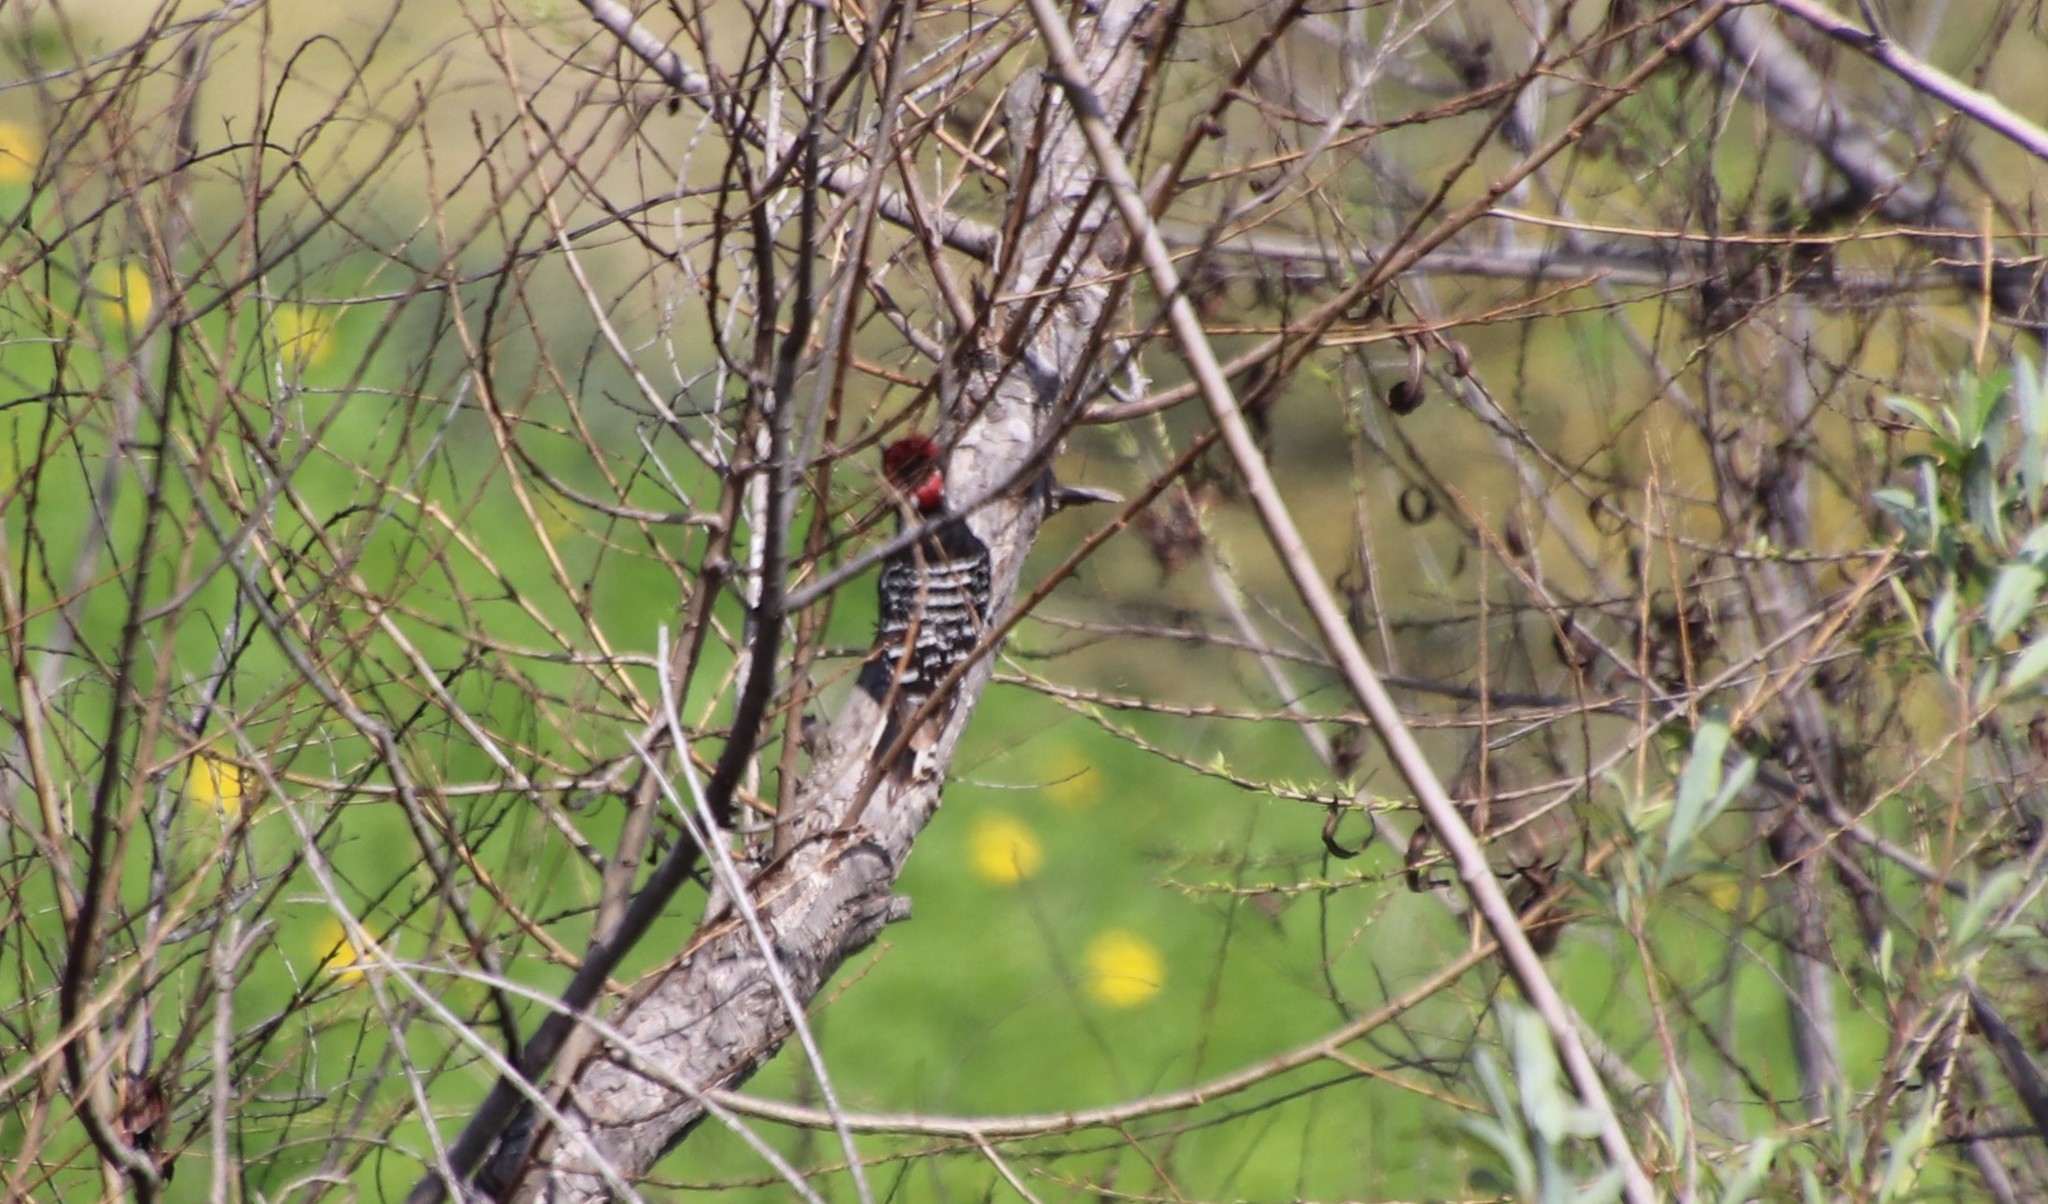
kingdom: Animalia
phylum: Chordata
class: Aves
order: Piciformes
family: Picidae
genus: Dryobates
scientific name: Dryobates nuttallii
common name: Nuttall's woodpecker
